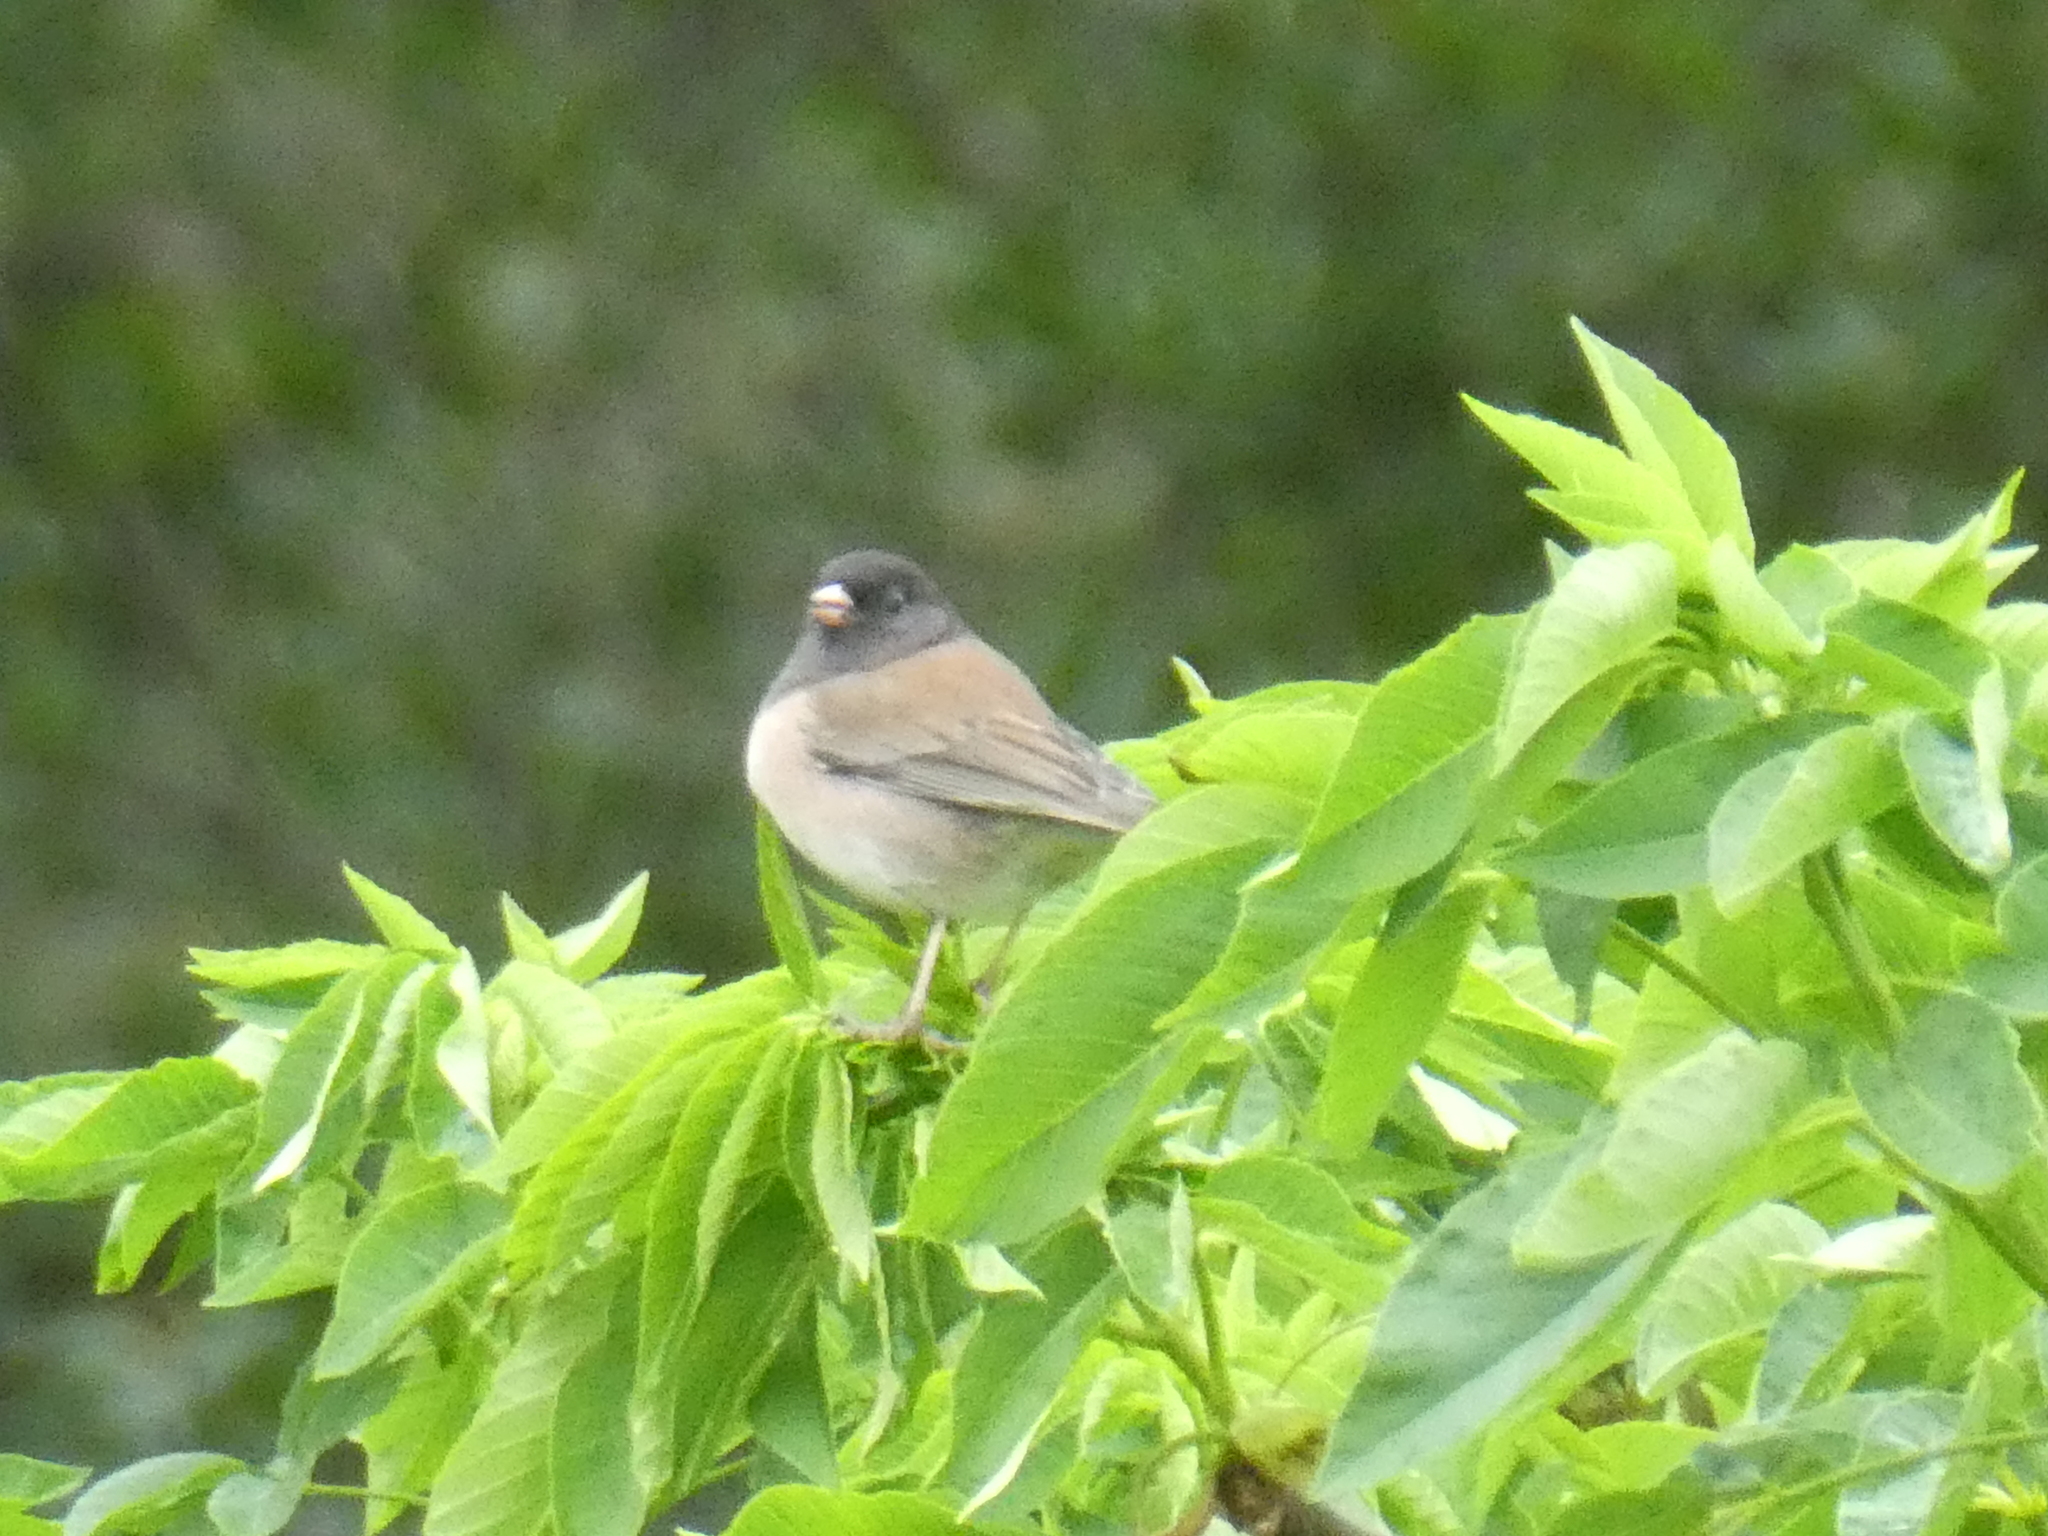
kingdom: Animalia
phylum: Chordata
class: Aves
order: Passeriformes
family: Passerellidae
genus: Junco
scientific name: Junco hyemalis
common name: Dark-eyed junco
